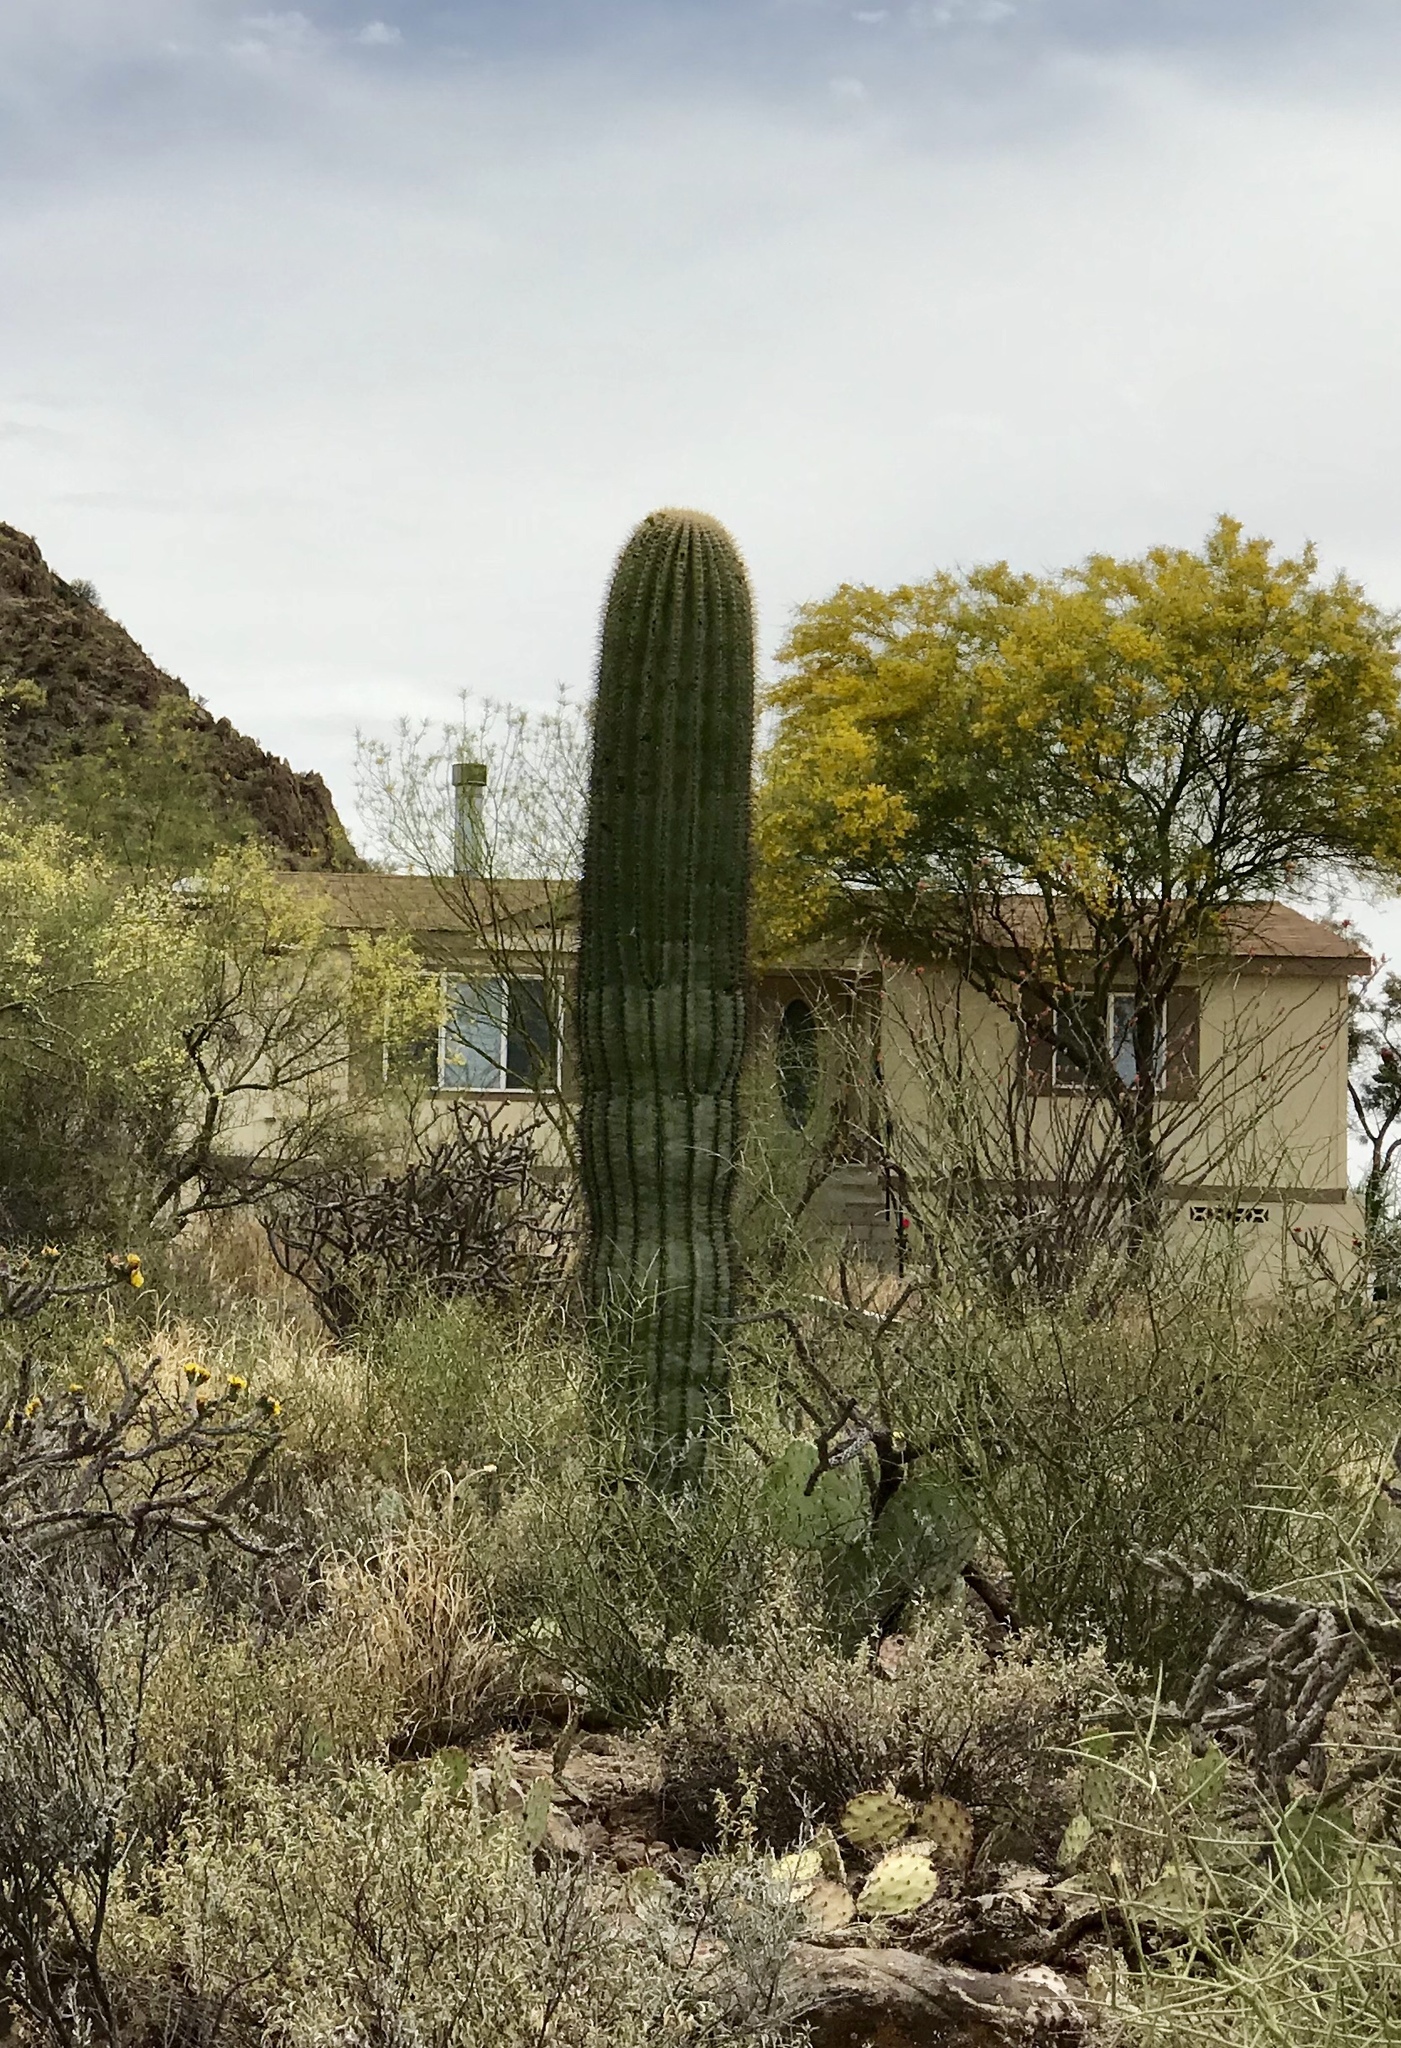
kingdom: Plantae
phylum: Tracheophyta
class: Magnoliopsida
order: Caryophyllales
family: Cactaceae
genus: Carnegiea
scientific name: Carnegiea gigantea
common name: Saguaro
